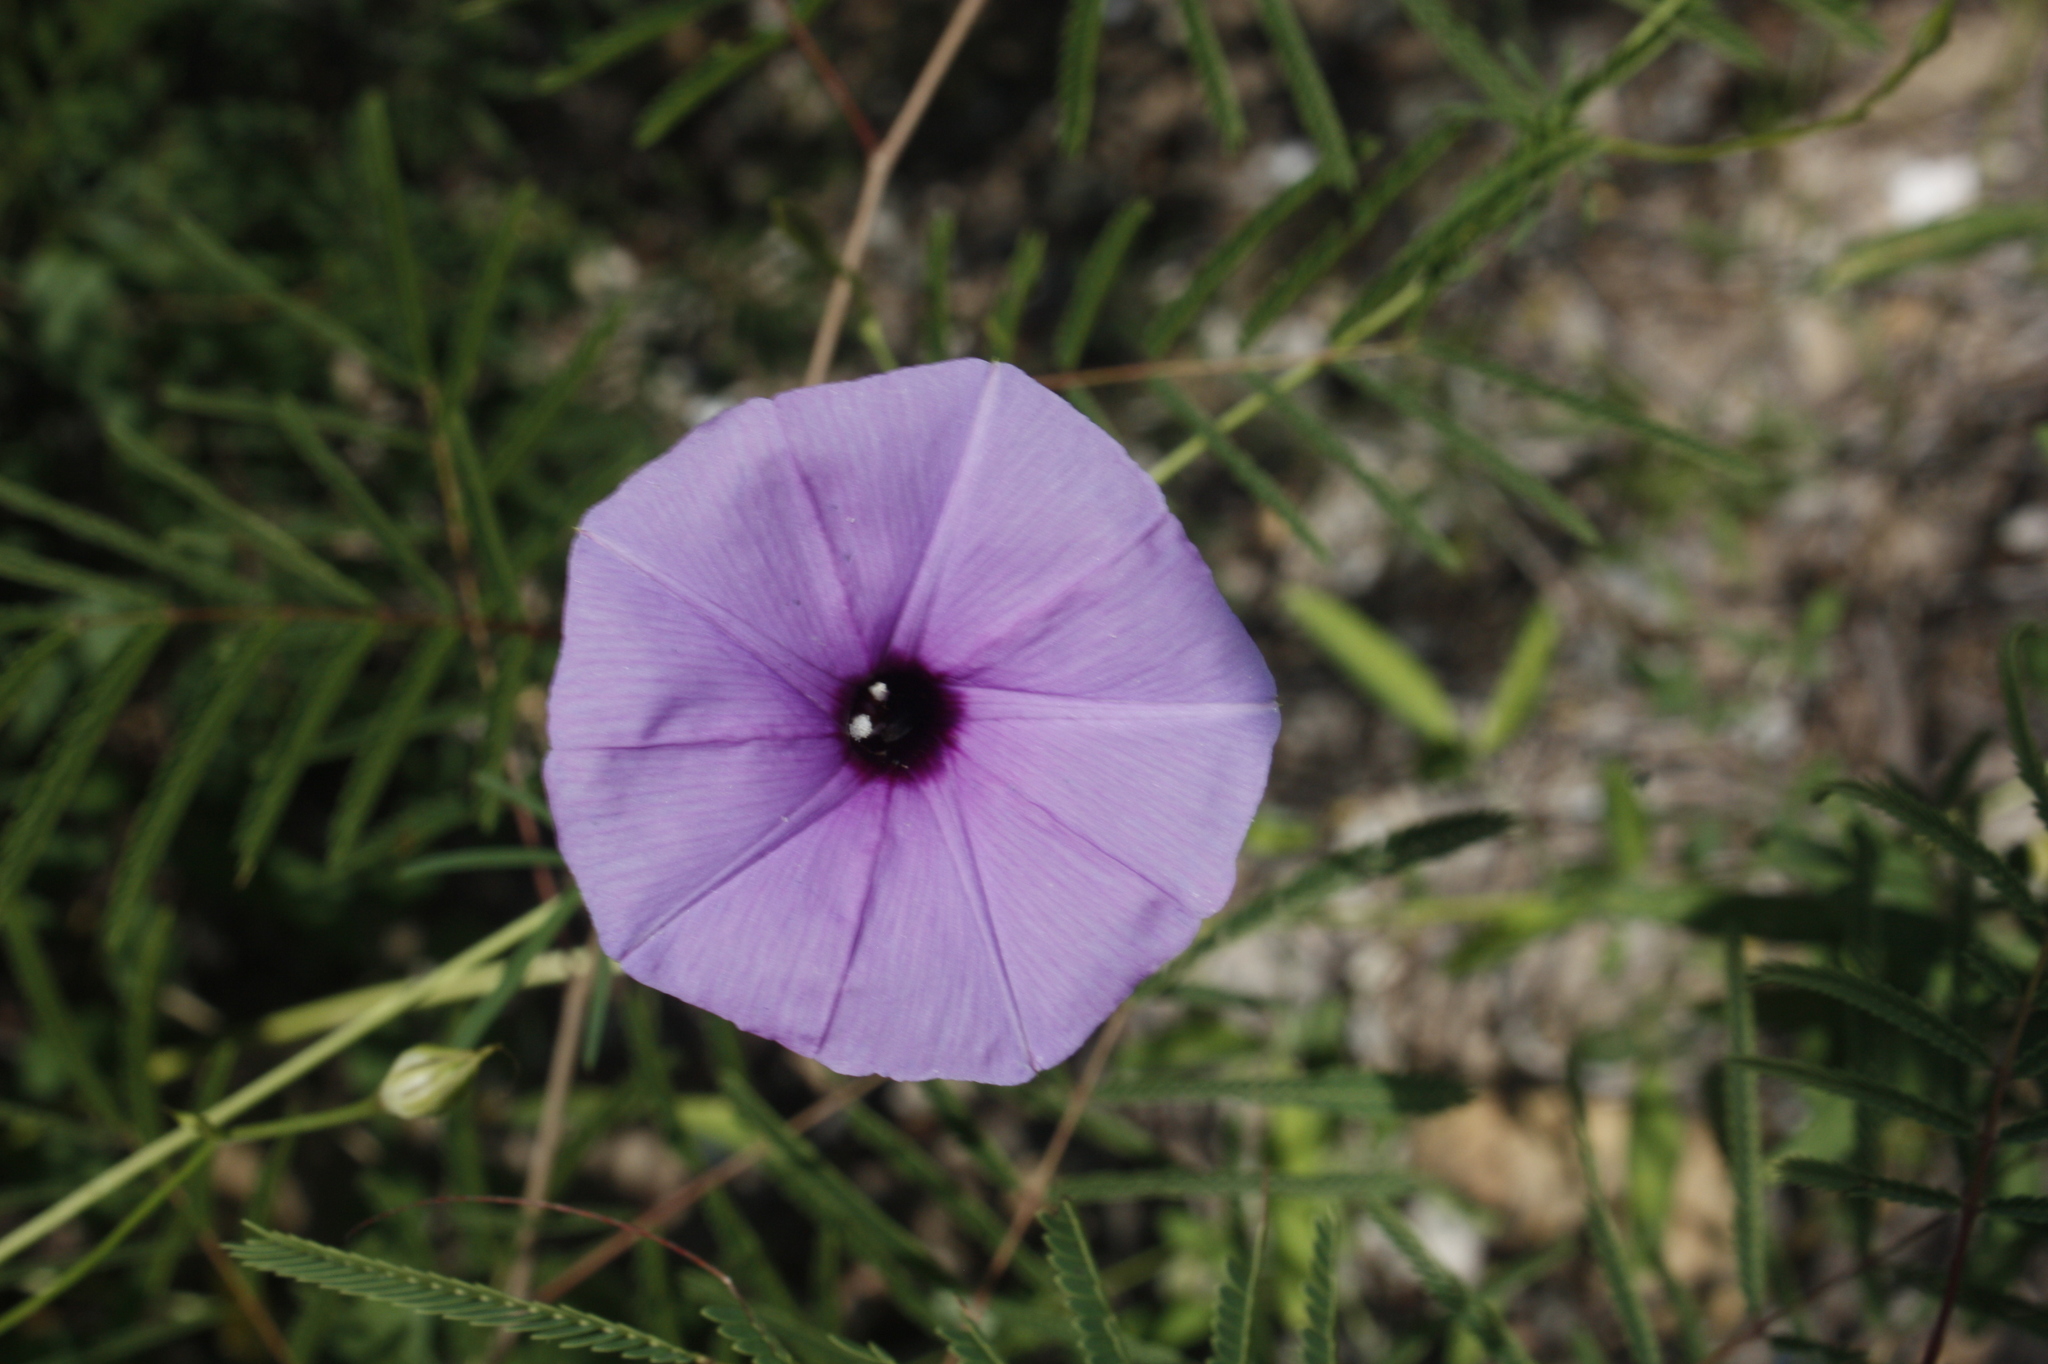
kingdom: Plantae
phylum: Tracheophyta
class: Magnoliopsida
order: Solanales
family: Convolvulaceae
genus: Ipomoea
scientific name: Ipomoea ternifolia
